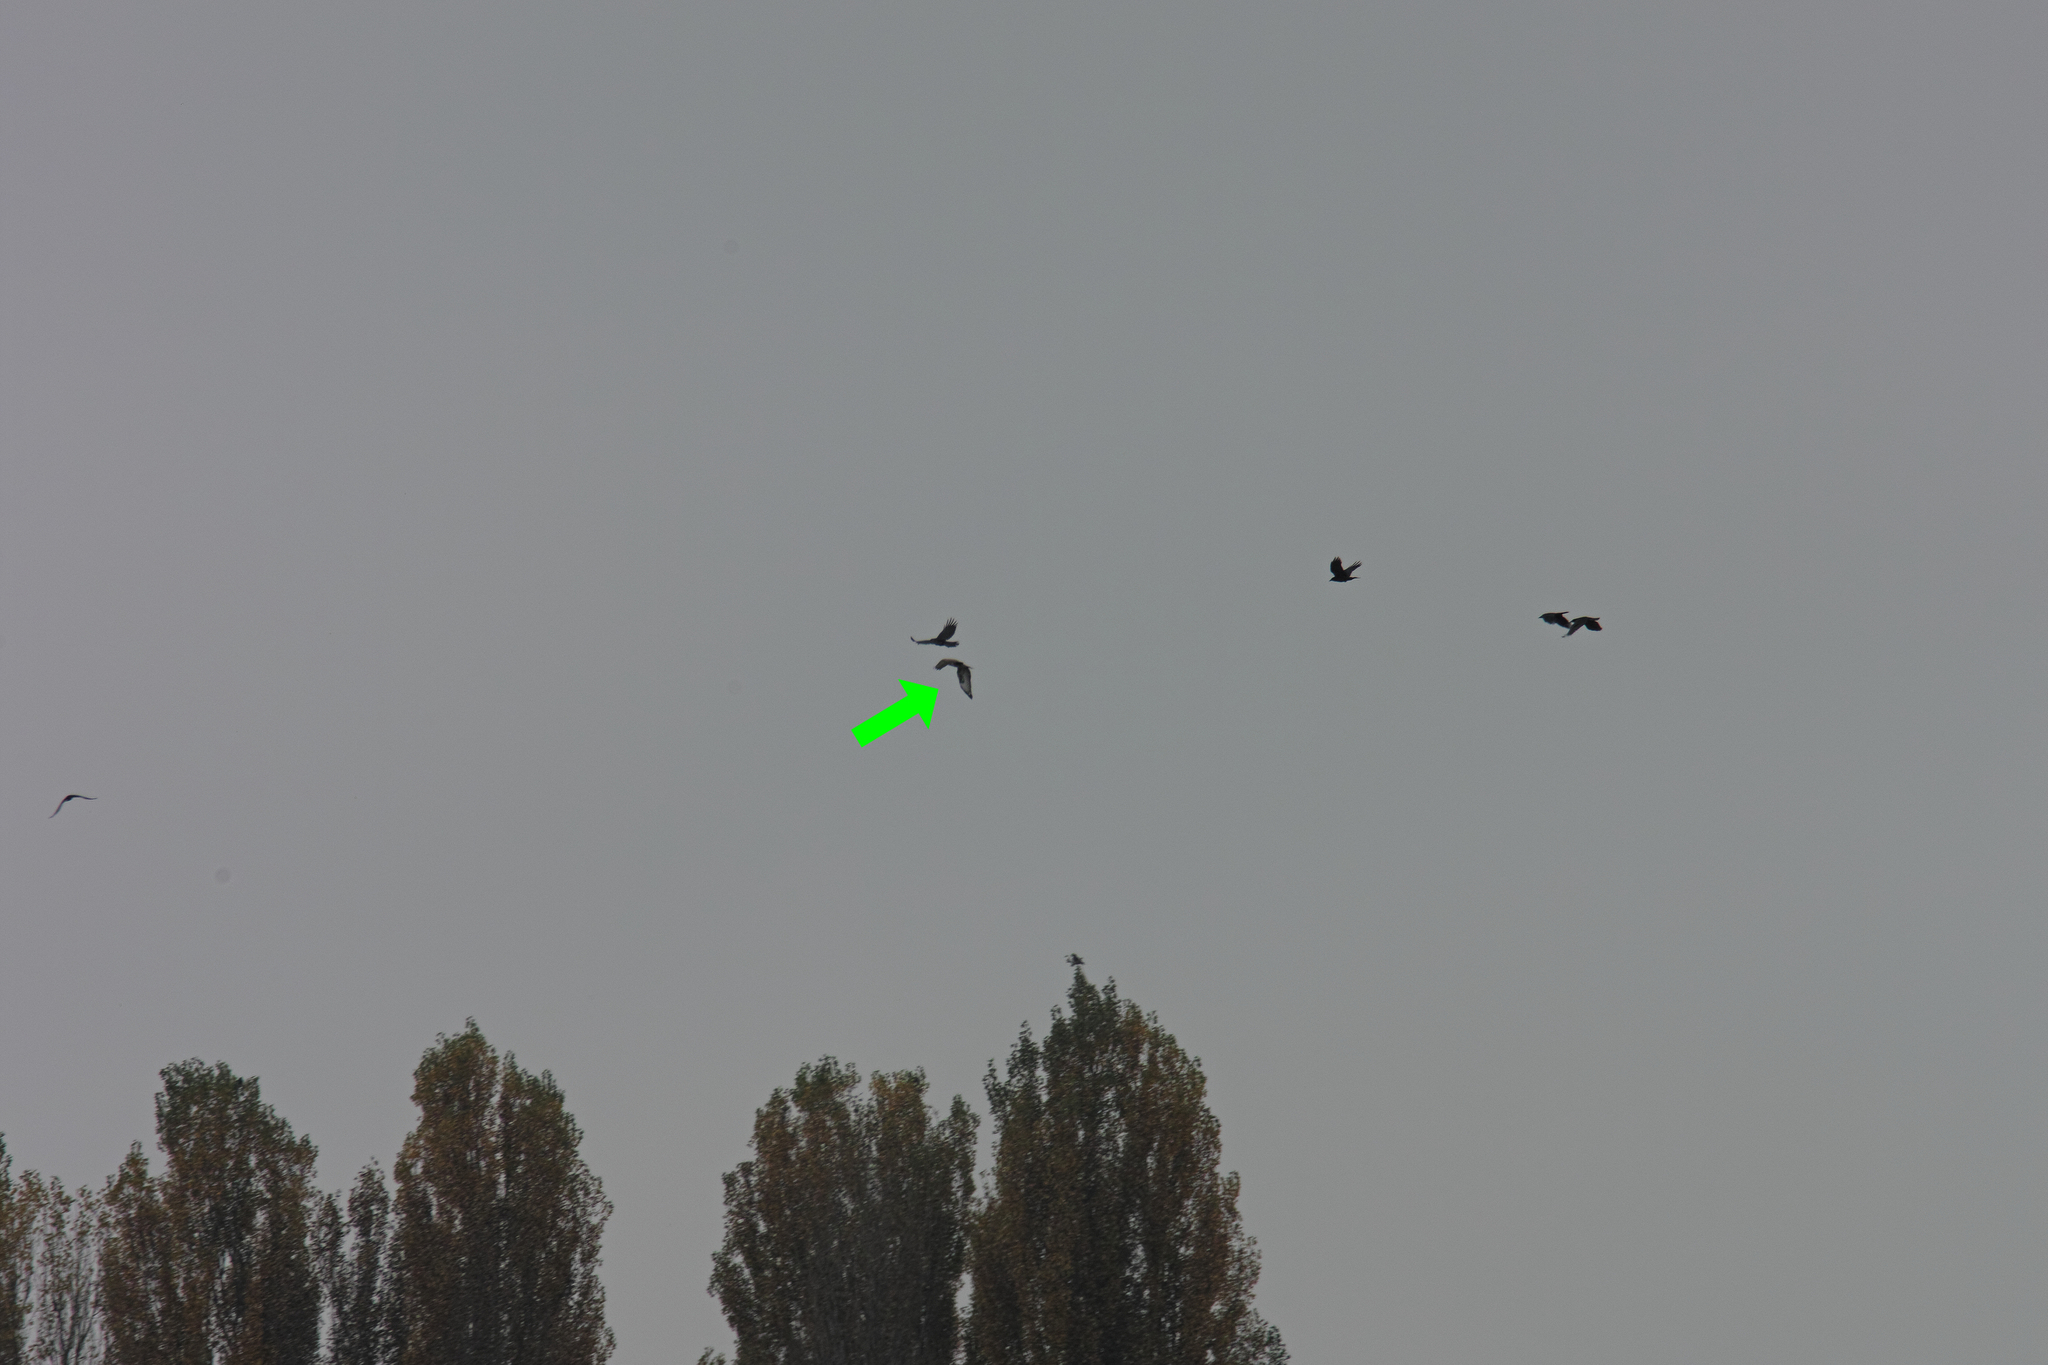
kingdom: Animalia
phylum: Chordata
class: Aves
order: Accipitriformes
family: Accipitridae
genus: Buteo
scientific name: Buteo buteo
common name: Common buzzard
